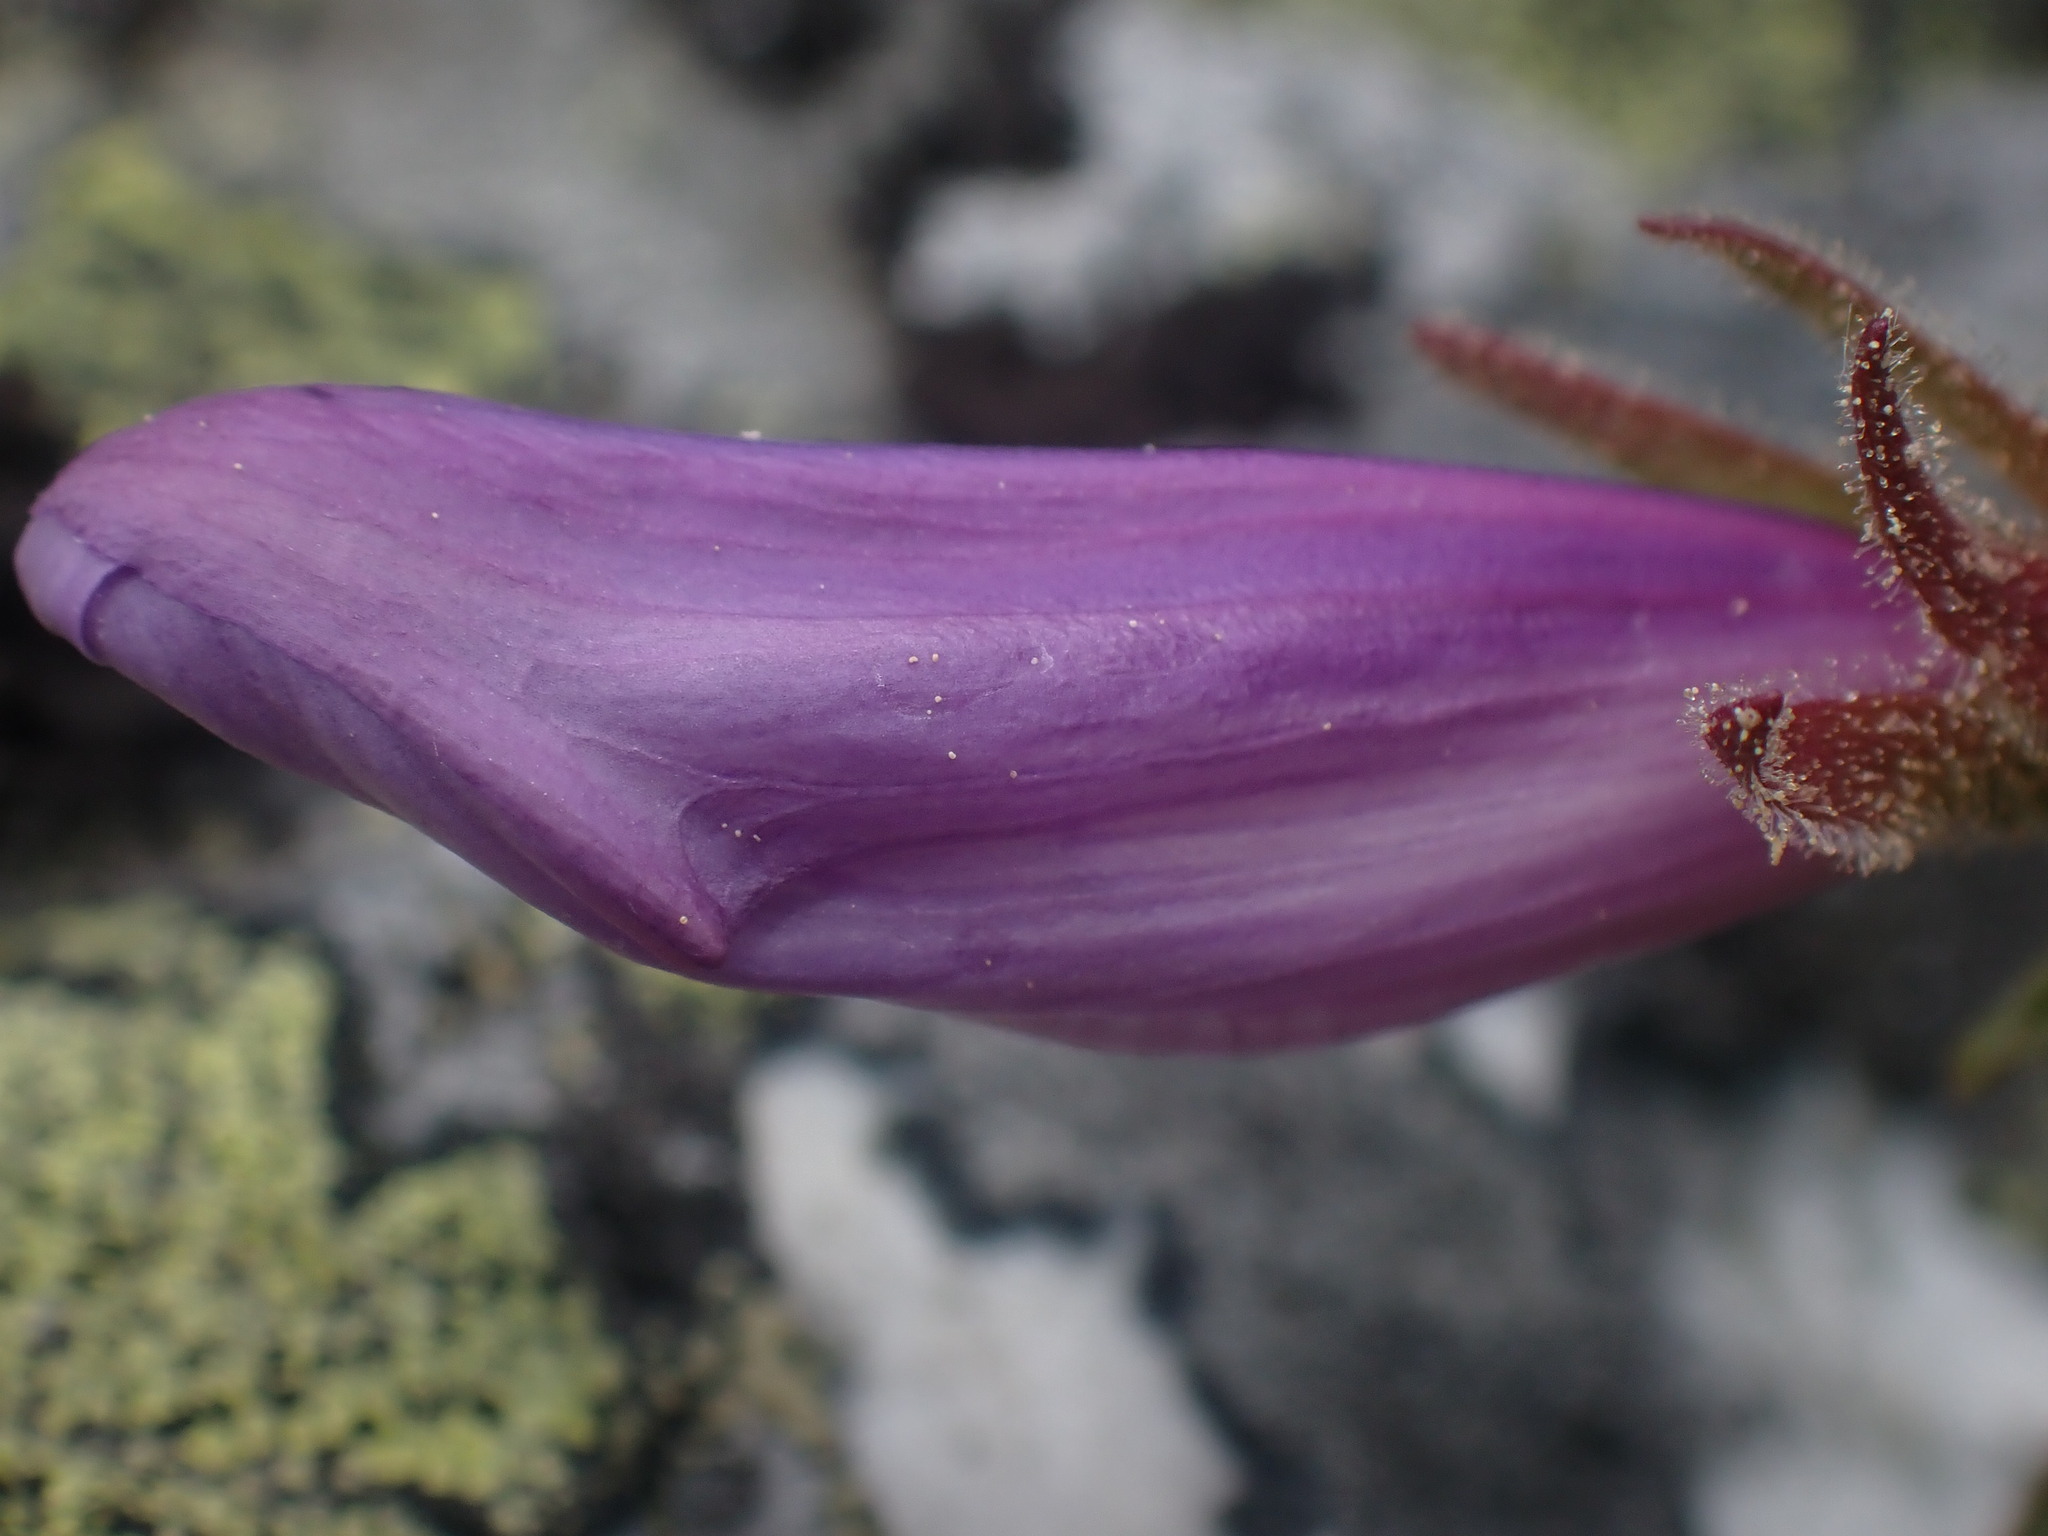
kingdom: Plantae
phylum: Tracheophyta
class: Magnoliopsida
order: Lamiales
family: Plantaginaceae
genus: Penstemon
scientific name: Penstemon ellipticus
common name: Alpine beardtongue
